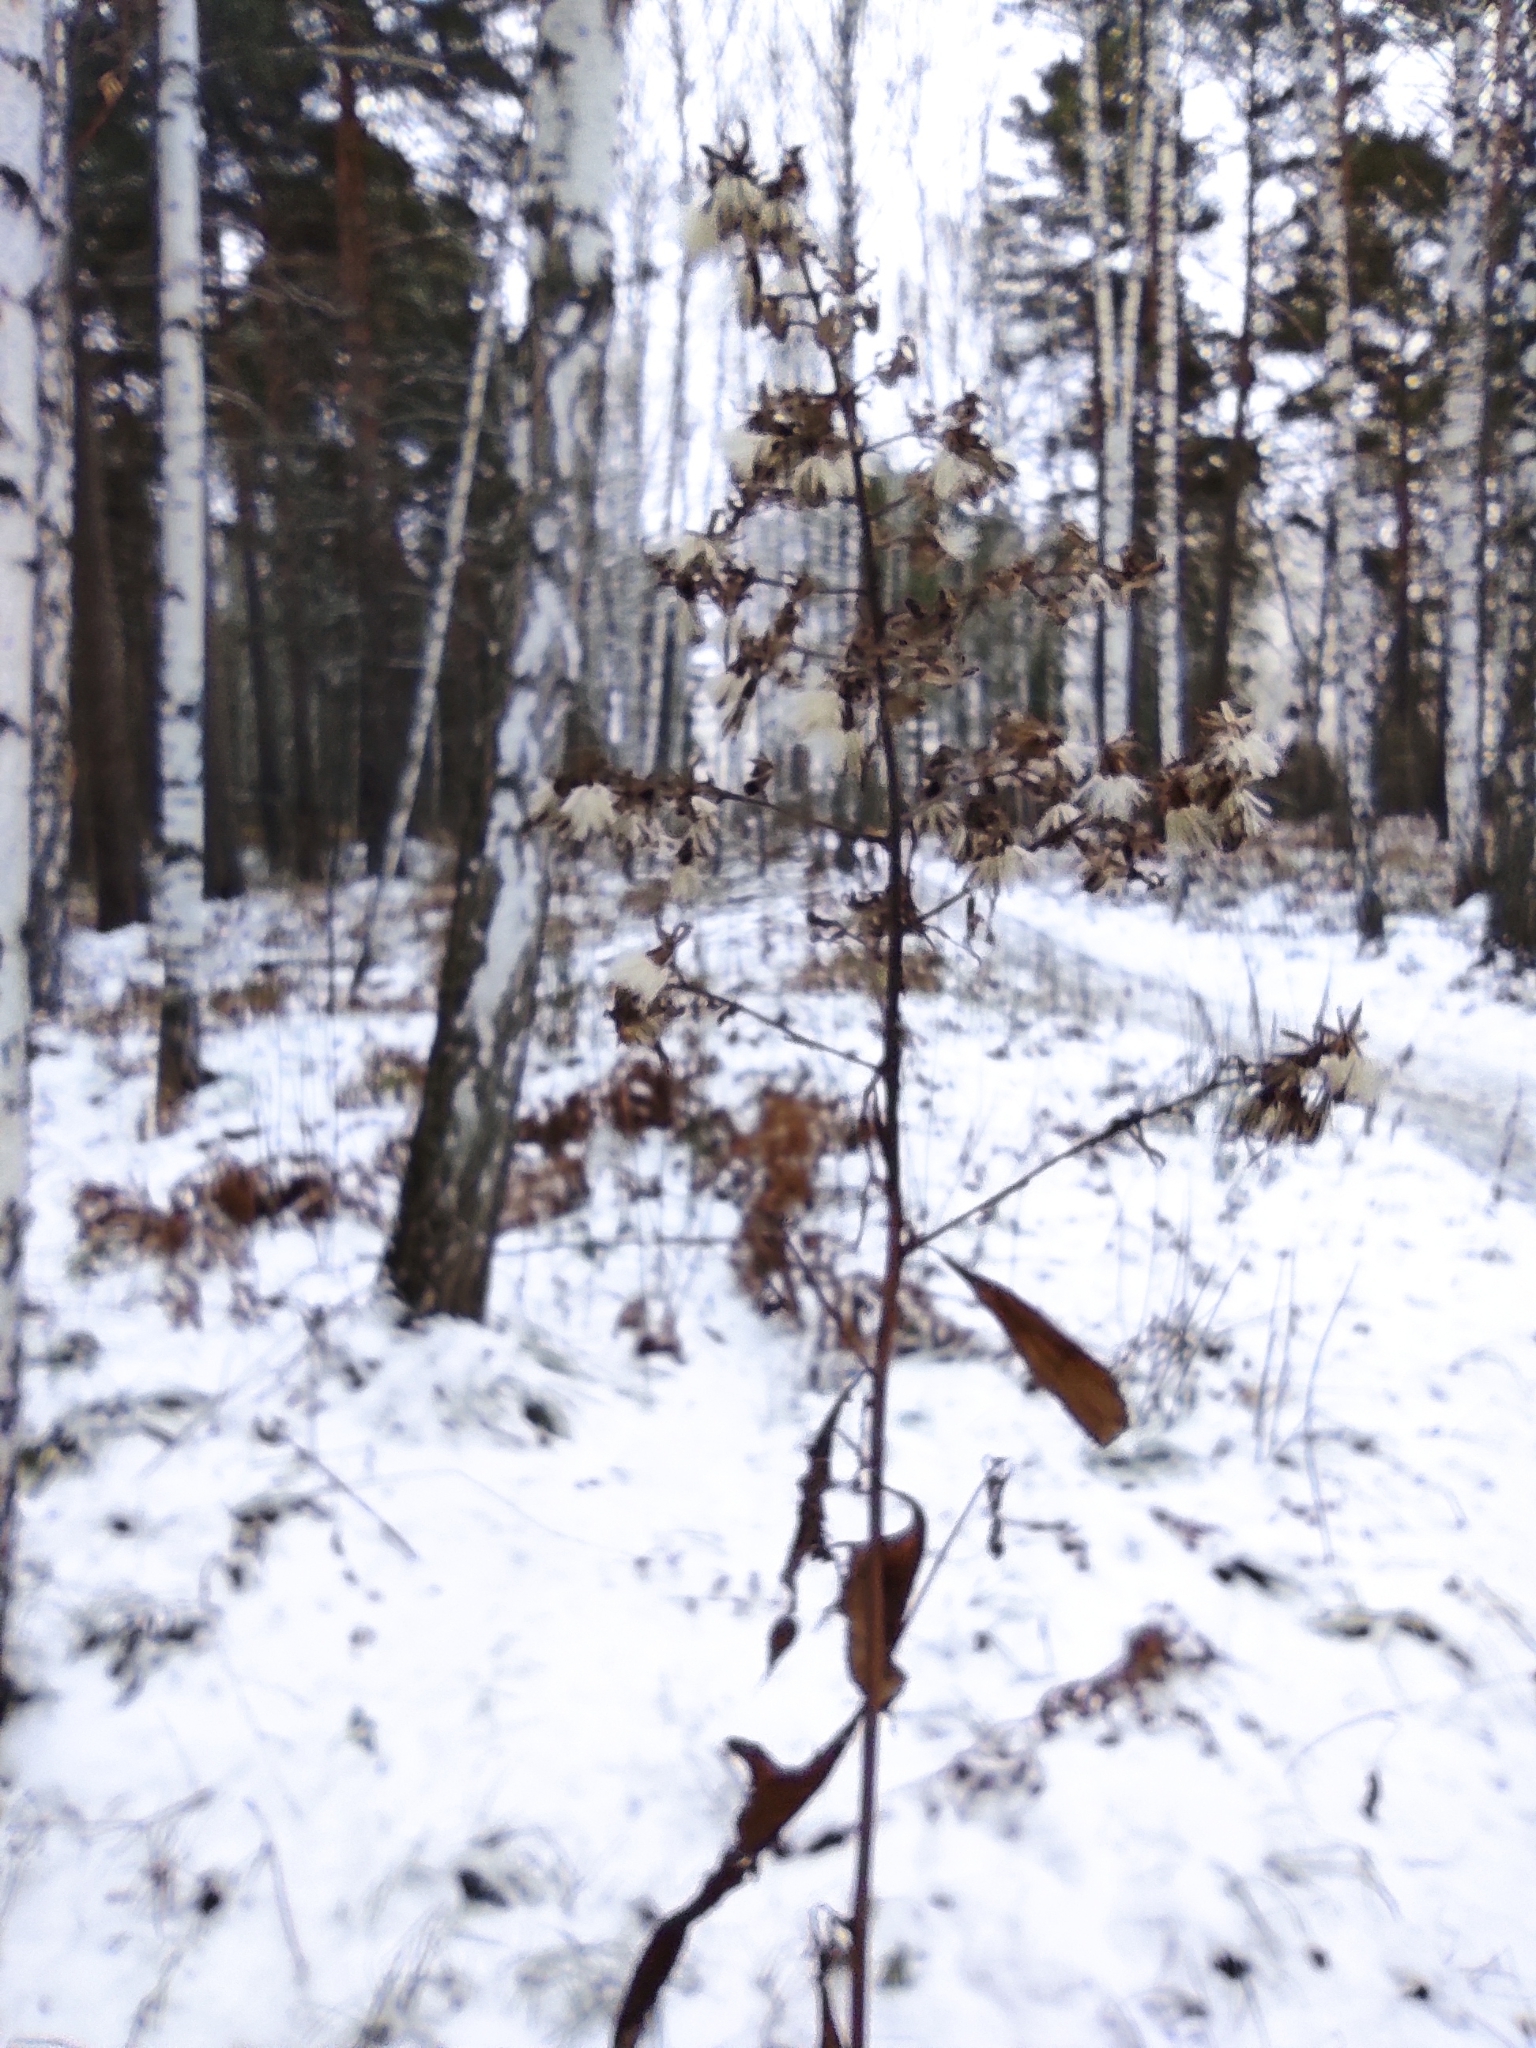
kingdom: Plantae
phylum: Tracheophyta
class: Magnoliopsida
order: Asterales
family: Asteraceae
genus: Parasenecio
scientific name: Parasenecio hastatus
